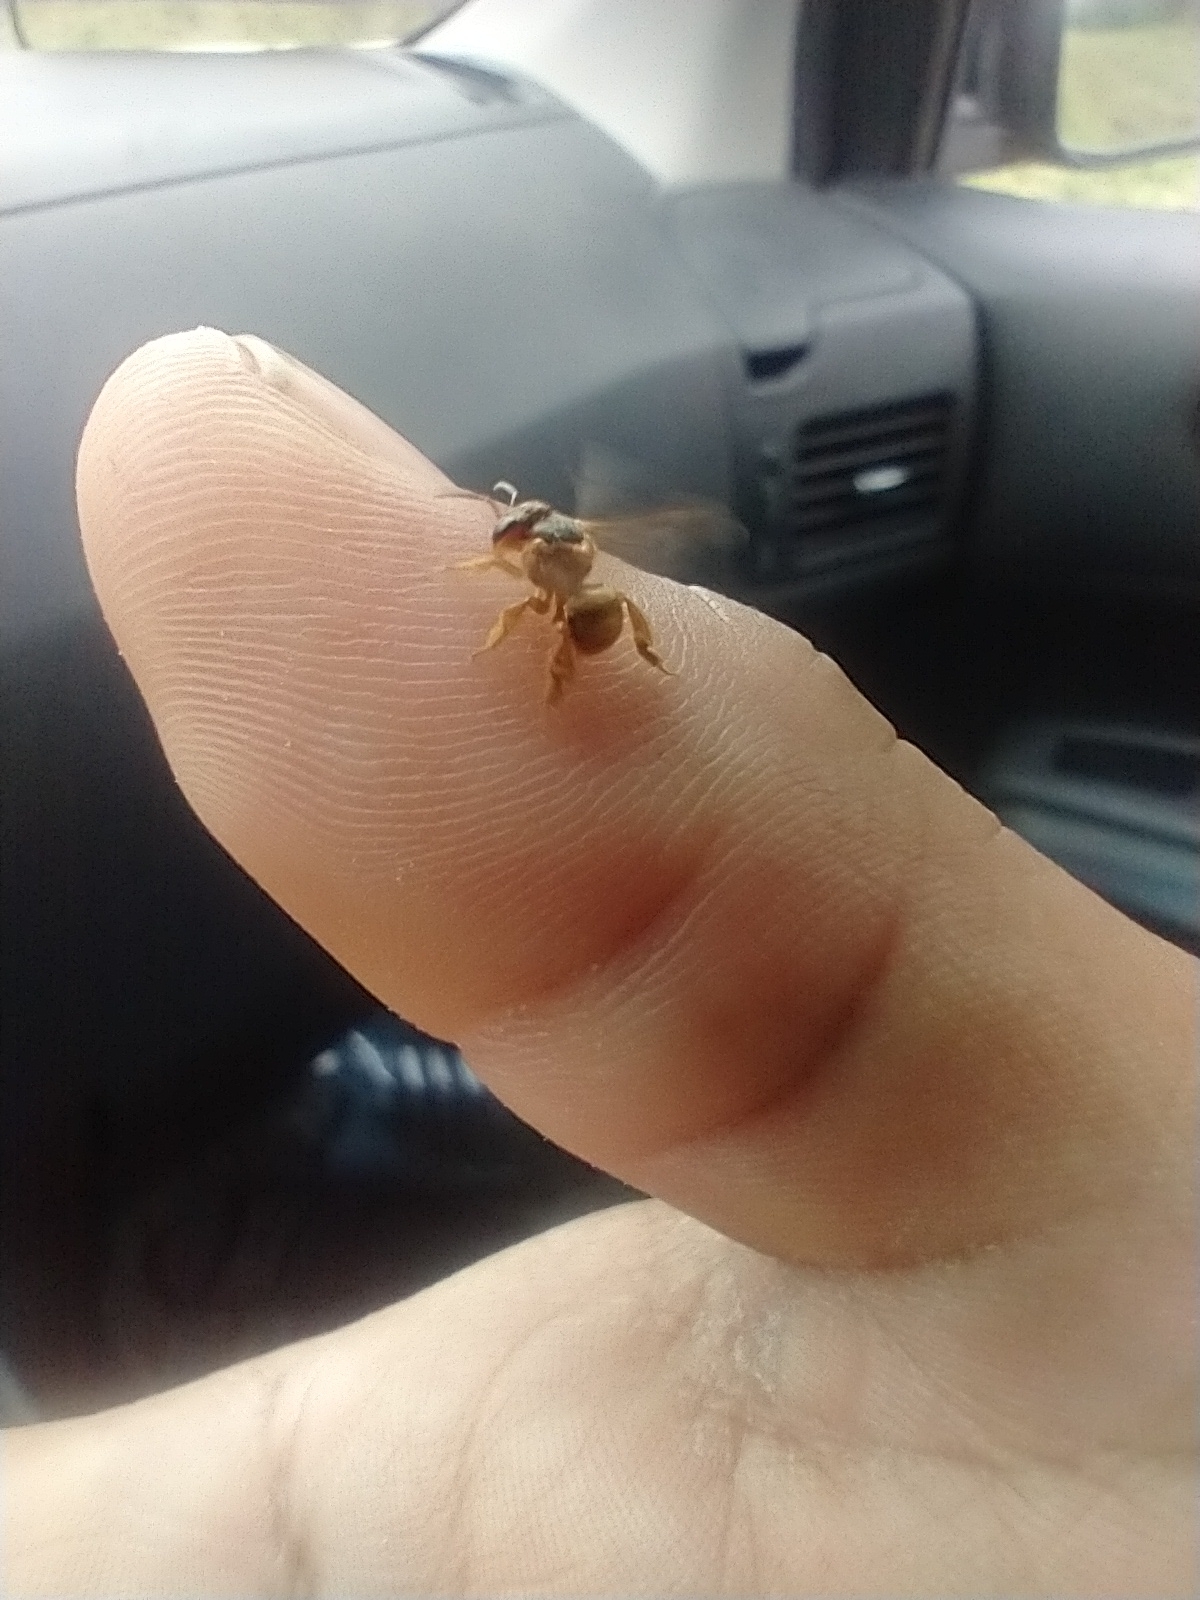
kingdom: Animalia
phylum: Arthropoda
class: Insecta
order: Hymenoptera
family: Apidae
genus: Scaptotrigona
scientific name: Scaptotrigona pectoralis
